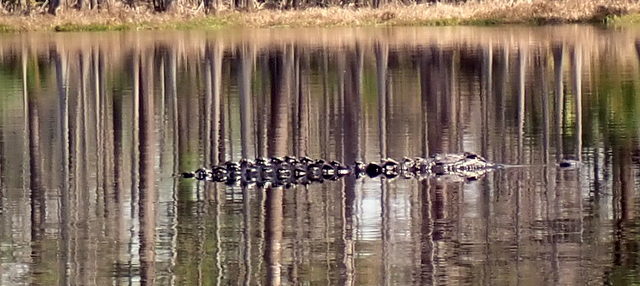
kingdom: Animalia
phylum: Chordata
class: Crocodylia
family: Alligatoridae
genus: Alligator
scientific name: Alligator mississippiensis
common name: American alligator
